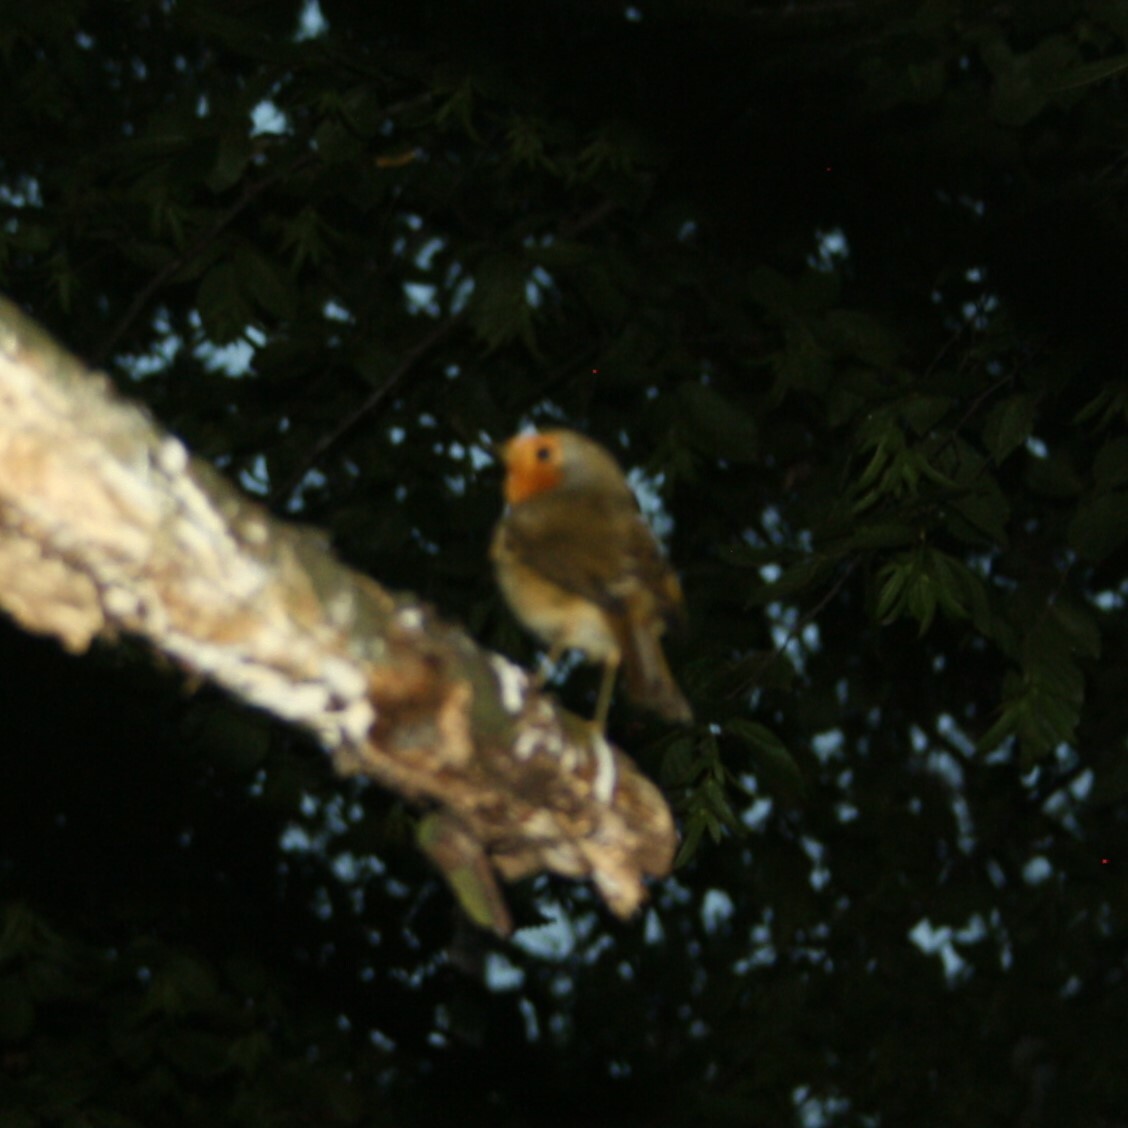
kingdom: Animalia
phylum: Chordata
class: Aves
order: Passeriformes
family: Muscicapidae
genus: Erithacus
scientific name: Erithacus rubecula
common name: European robin
